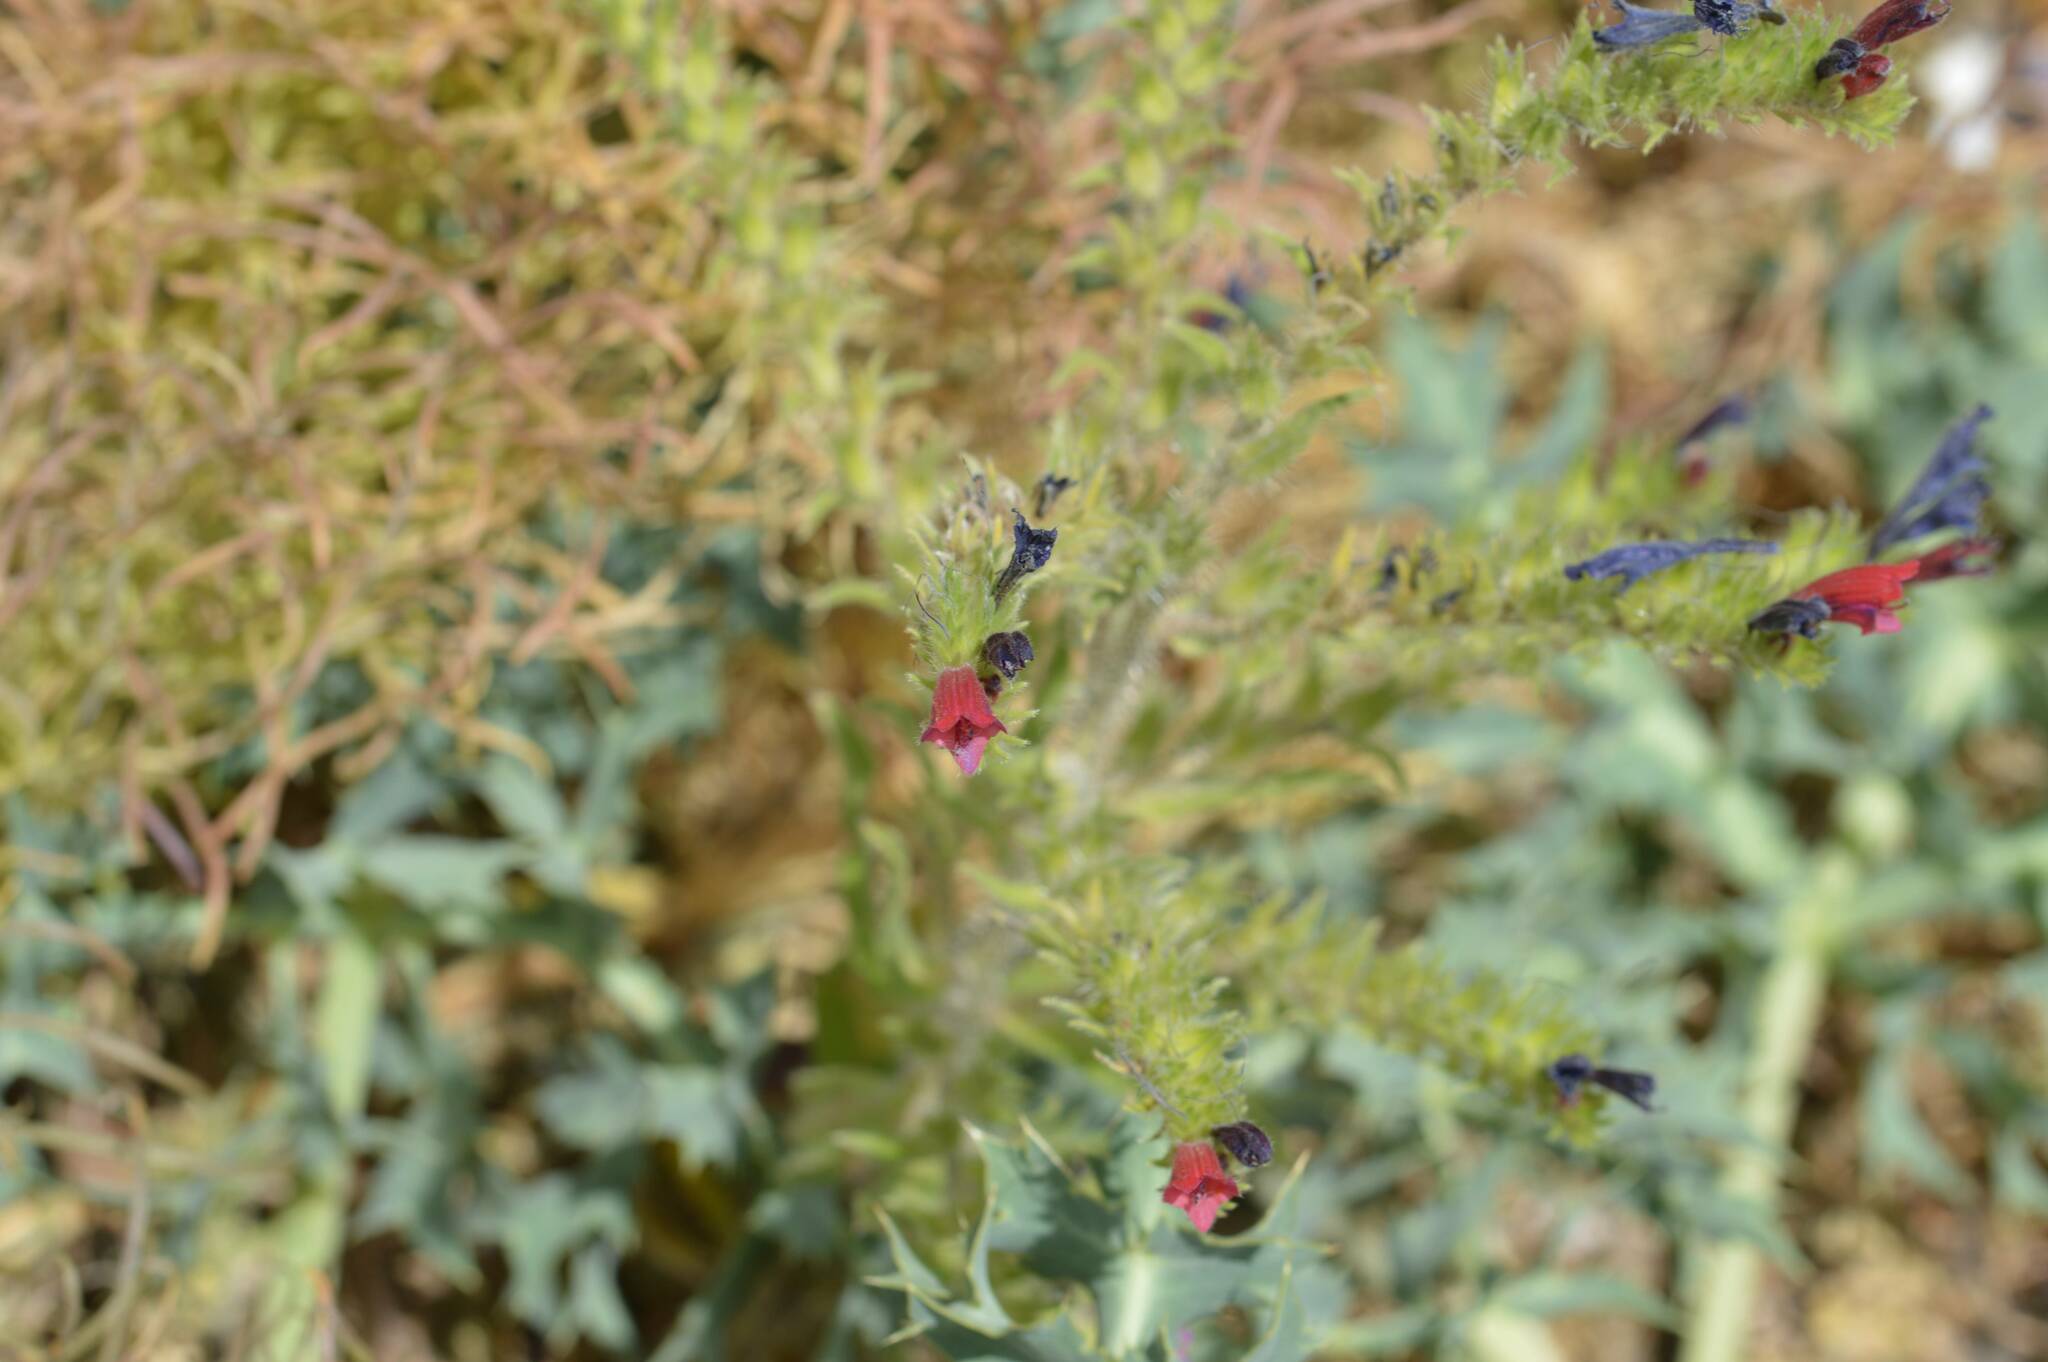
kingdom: Plantae
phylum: Tracheophyta
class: Magnoliopsida
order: Boraginales
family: Boraginaceae
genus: Echium
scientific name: Echium creticum
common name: Cretan viper's bugloss
